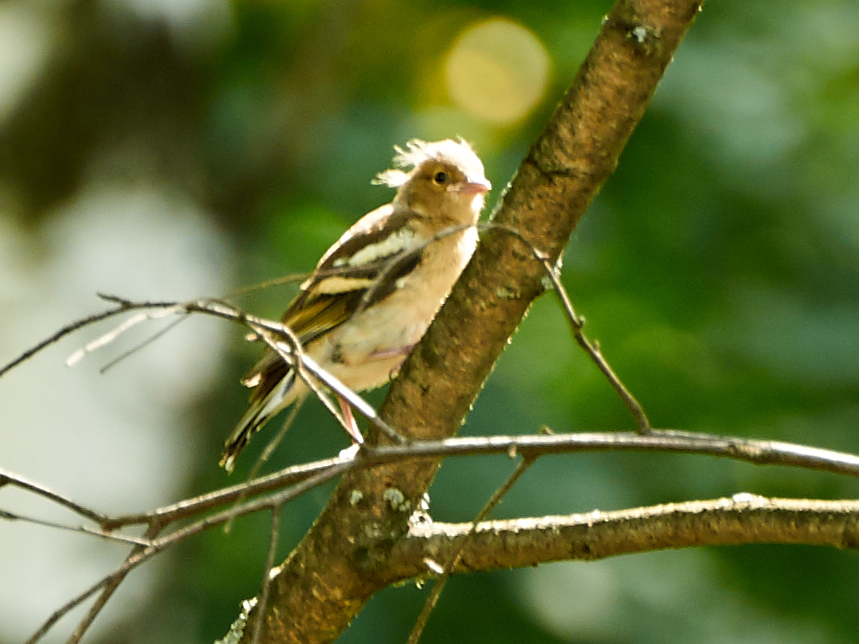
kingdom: Animalia
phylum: Chordata
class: Aves
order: Passeriformes
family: Fringillidae
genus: Fringilla
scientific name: Fringilla coelebs
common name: Common chaffinch
